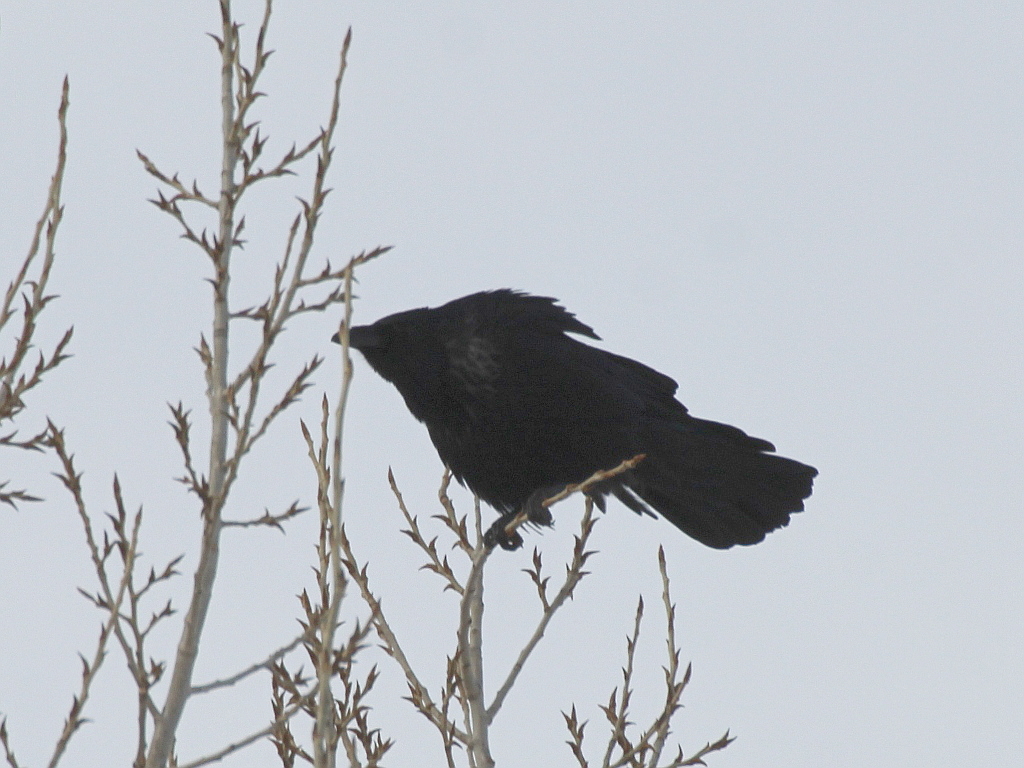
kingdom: Animalia
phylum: Chordata
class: Aves
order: Passeriformes
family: Corvidae
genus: Corvus
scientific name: Corvus
